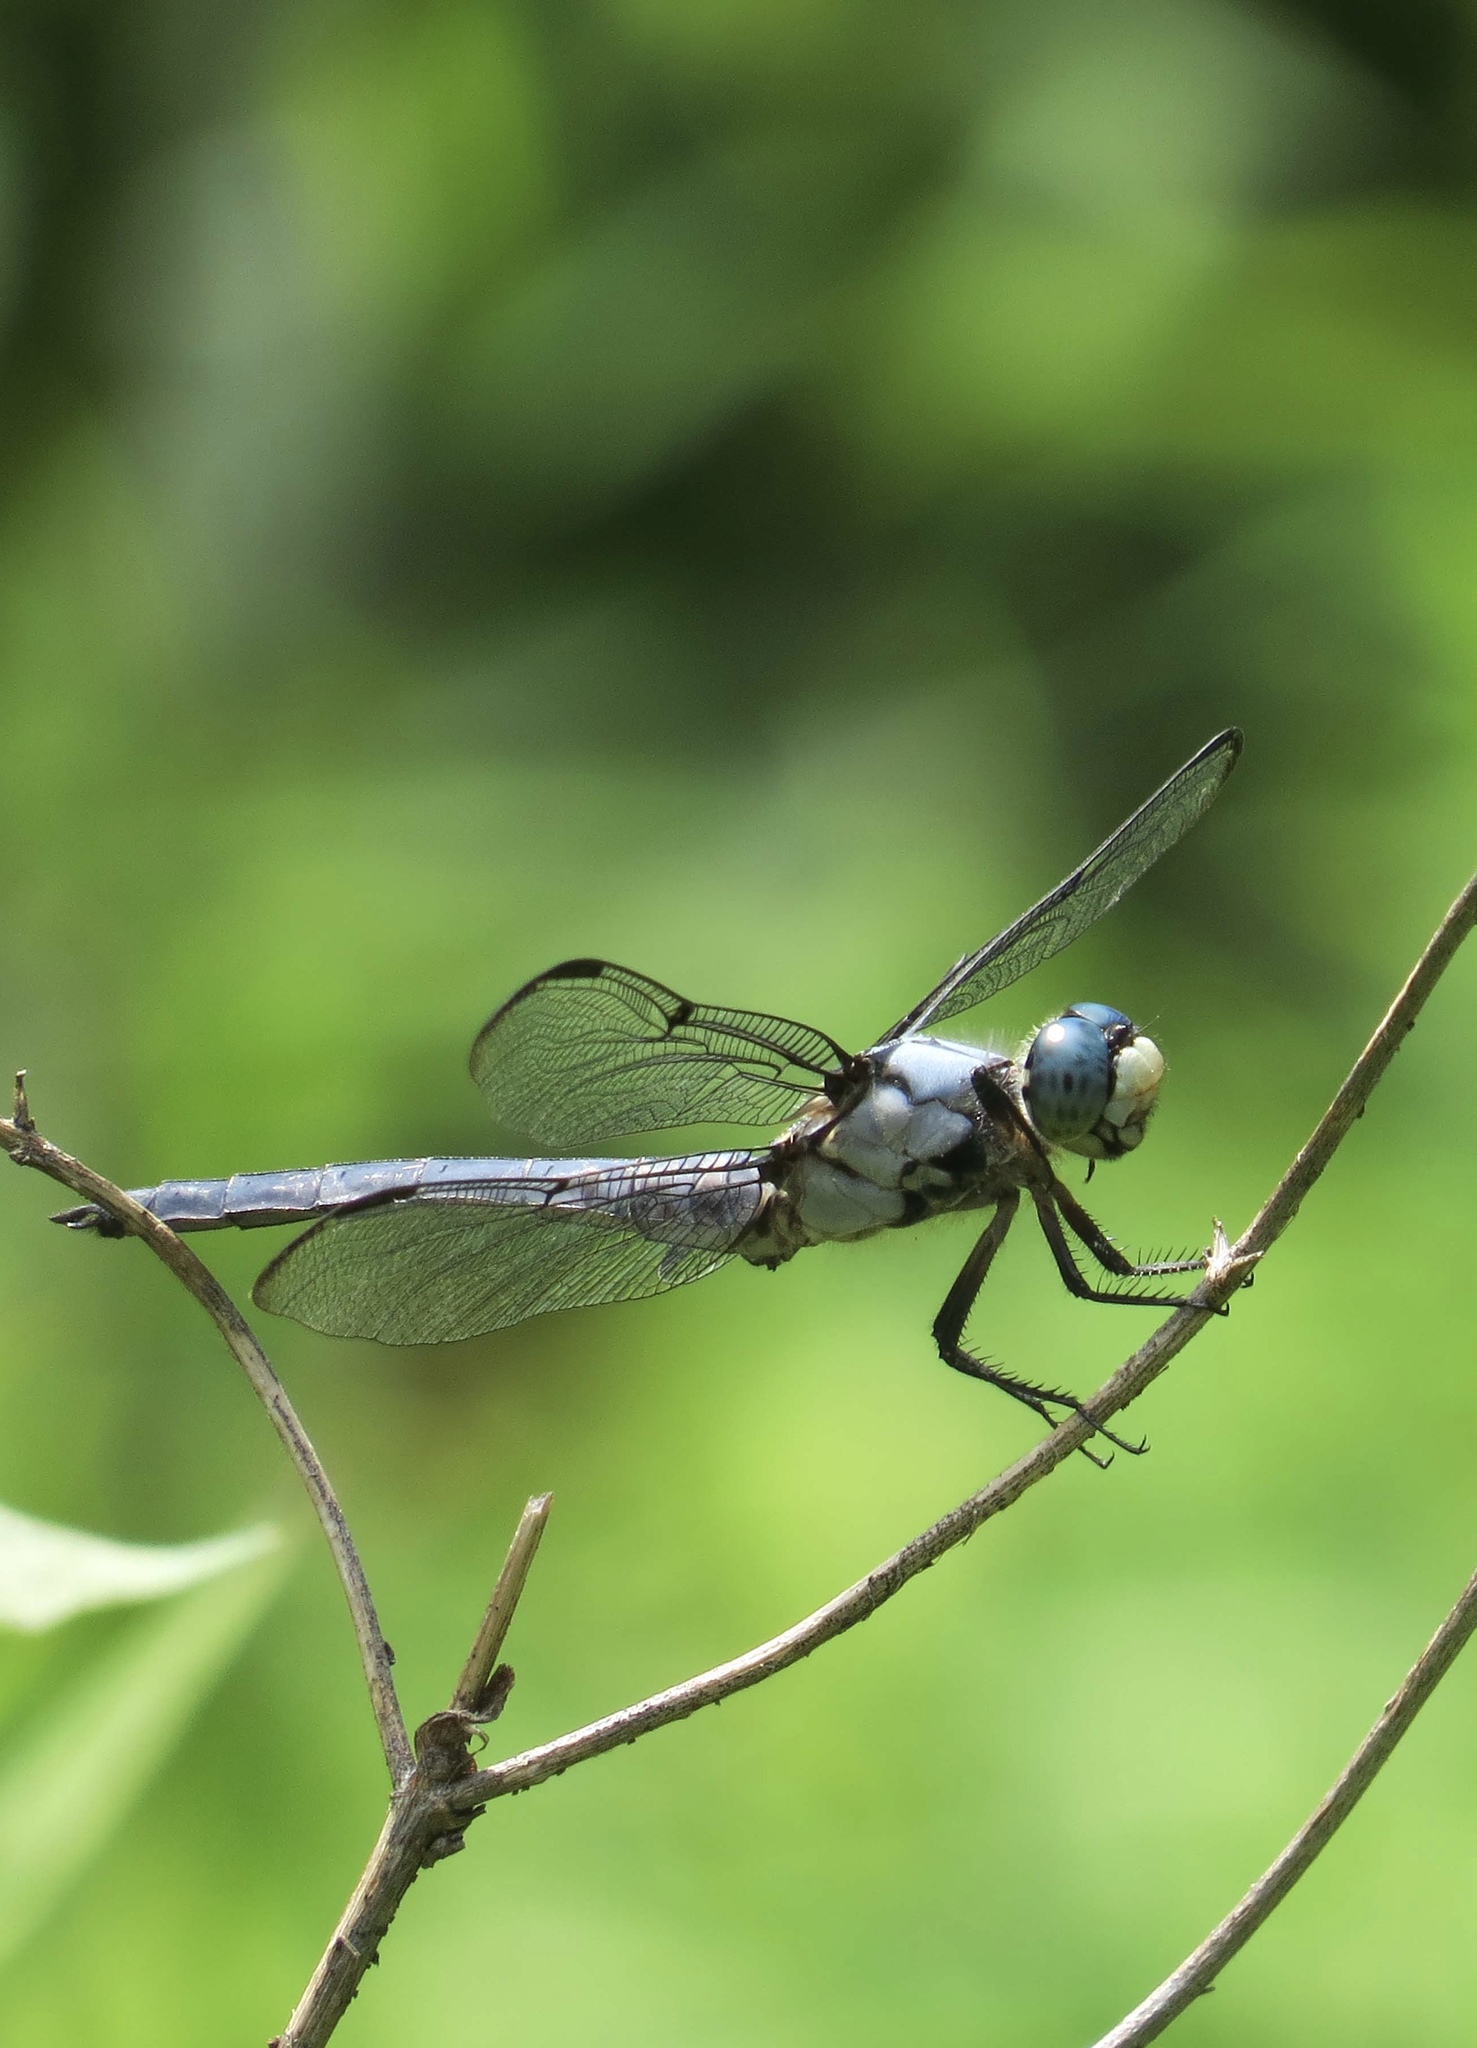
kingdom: Animalia
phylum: Arthropoda
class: Insecta
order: Odonata
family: Libellulidae
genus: Libellula
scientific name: Libellula vibrans
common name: Great blue skimmer
